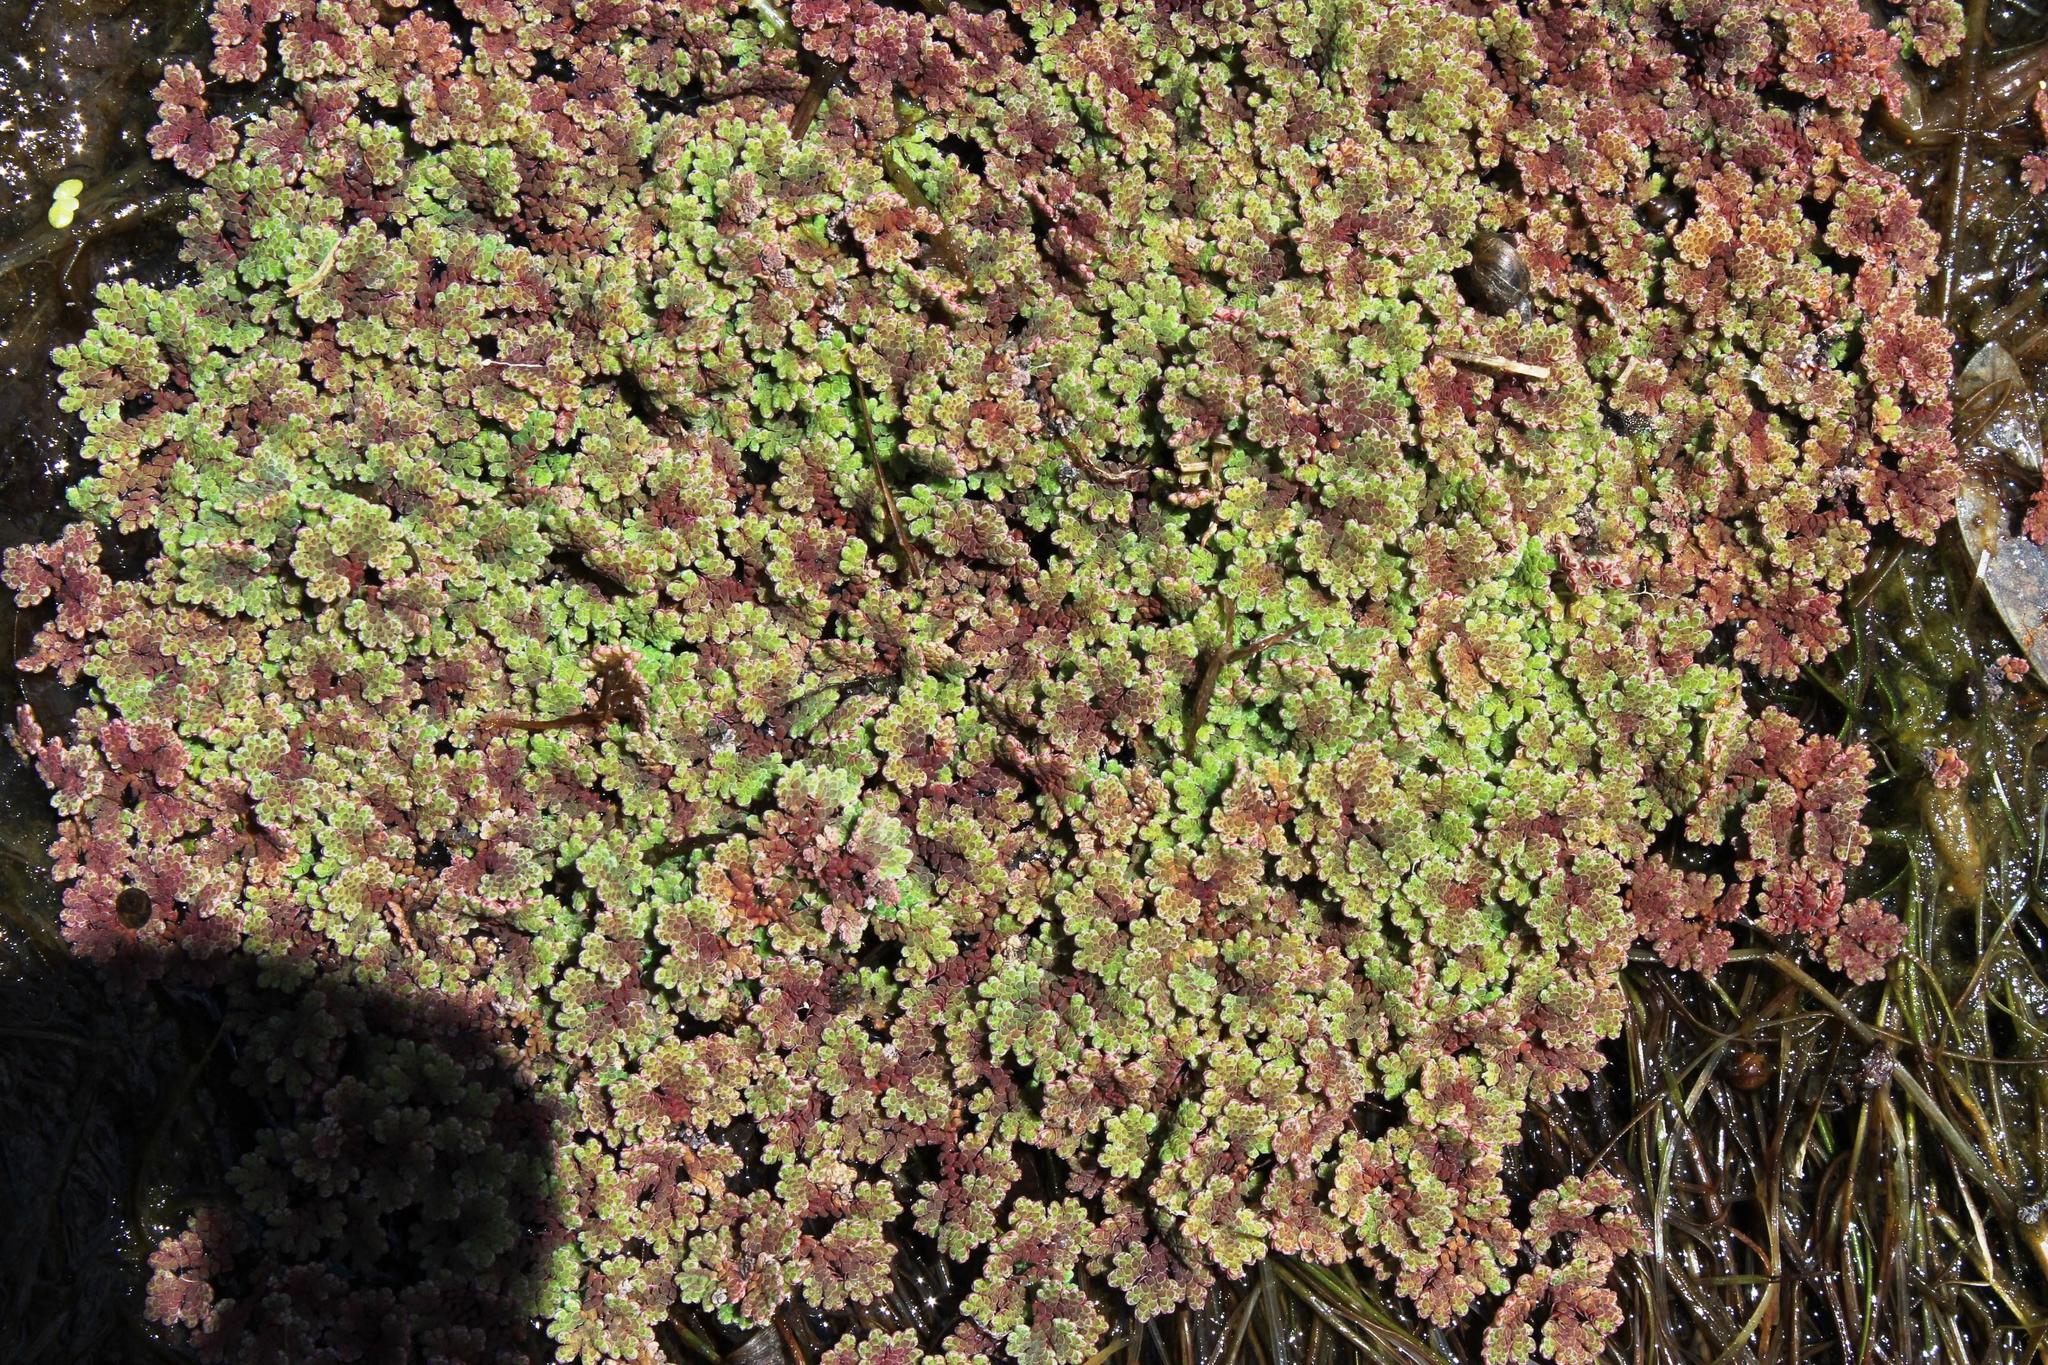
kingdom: Plantae
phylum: Tracheophyta
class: Polypodiopsida
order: Salviniales
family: Salviniaceae
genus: Azolla
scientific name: Azolla filiculoides
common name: Water fern
